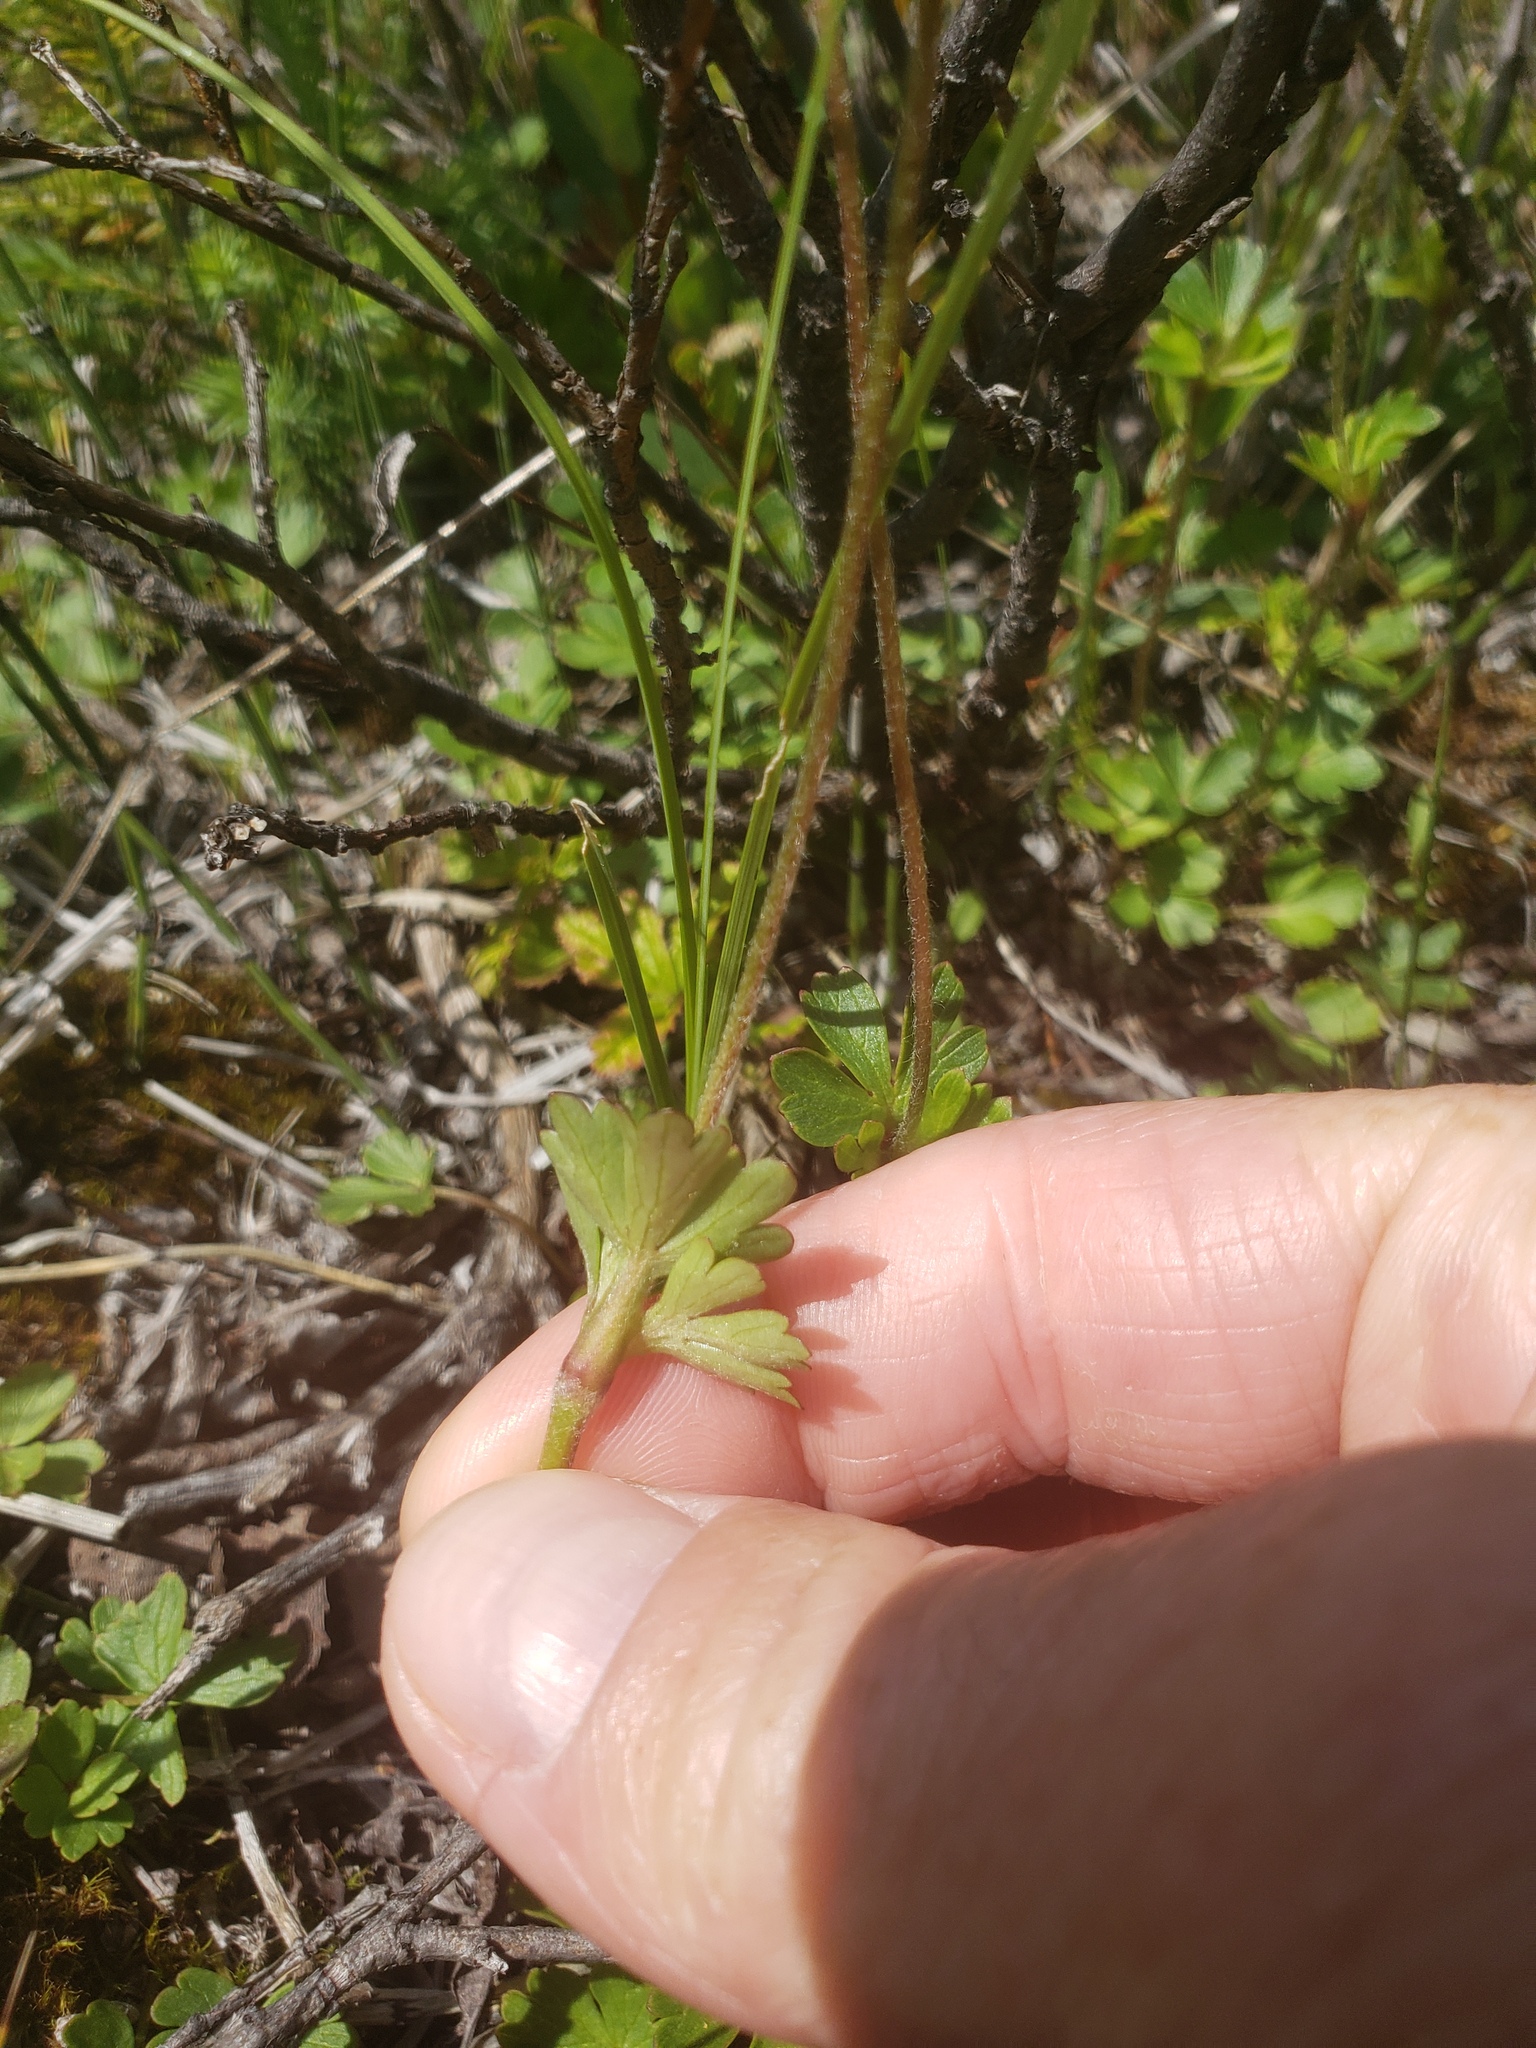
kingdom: Plantae
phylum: Tracheophyta
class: Magnoliopsida
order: Ranunculales
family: Ranunculaceae
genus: Anemone
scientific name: Anemone parviflora
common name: Northern anemone
